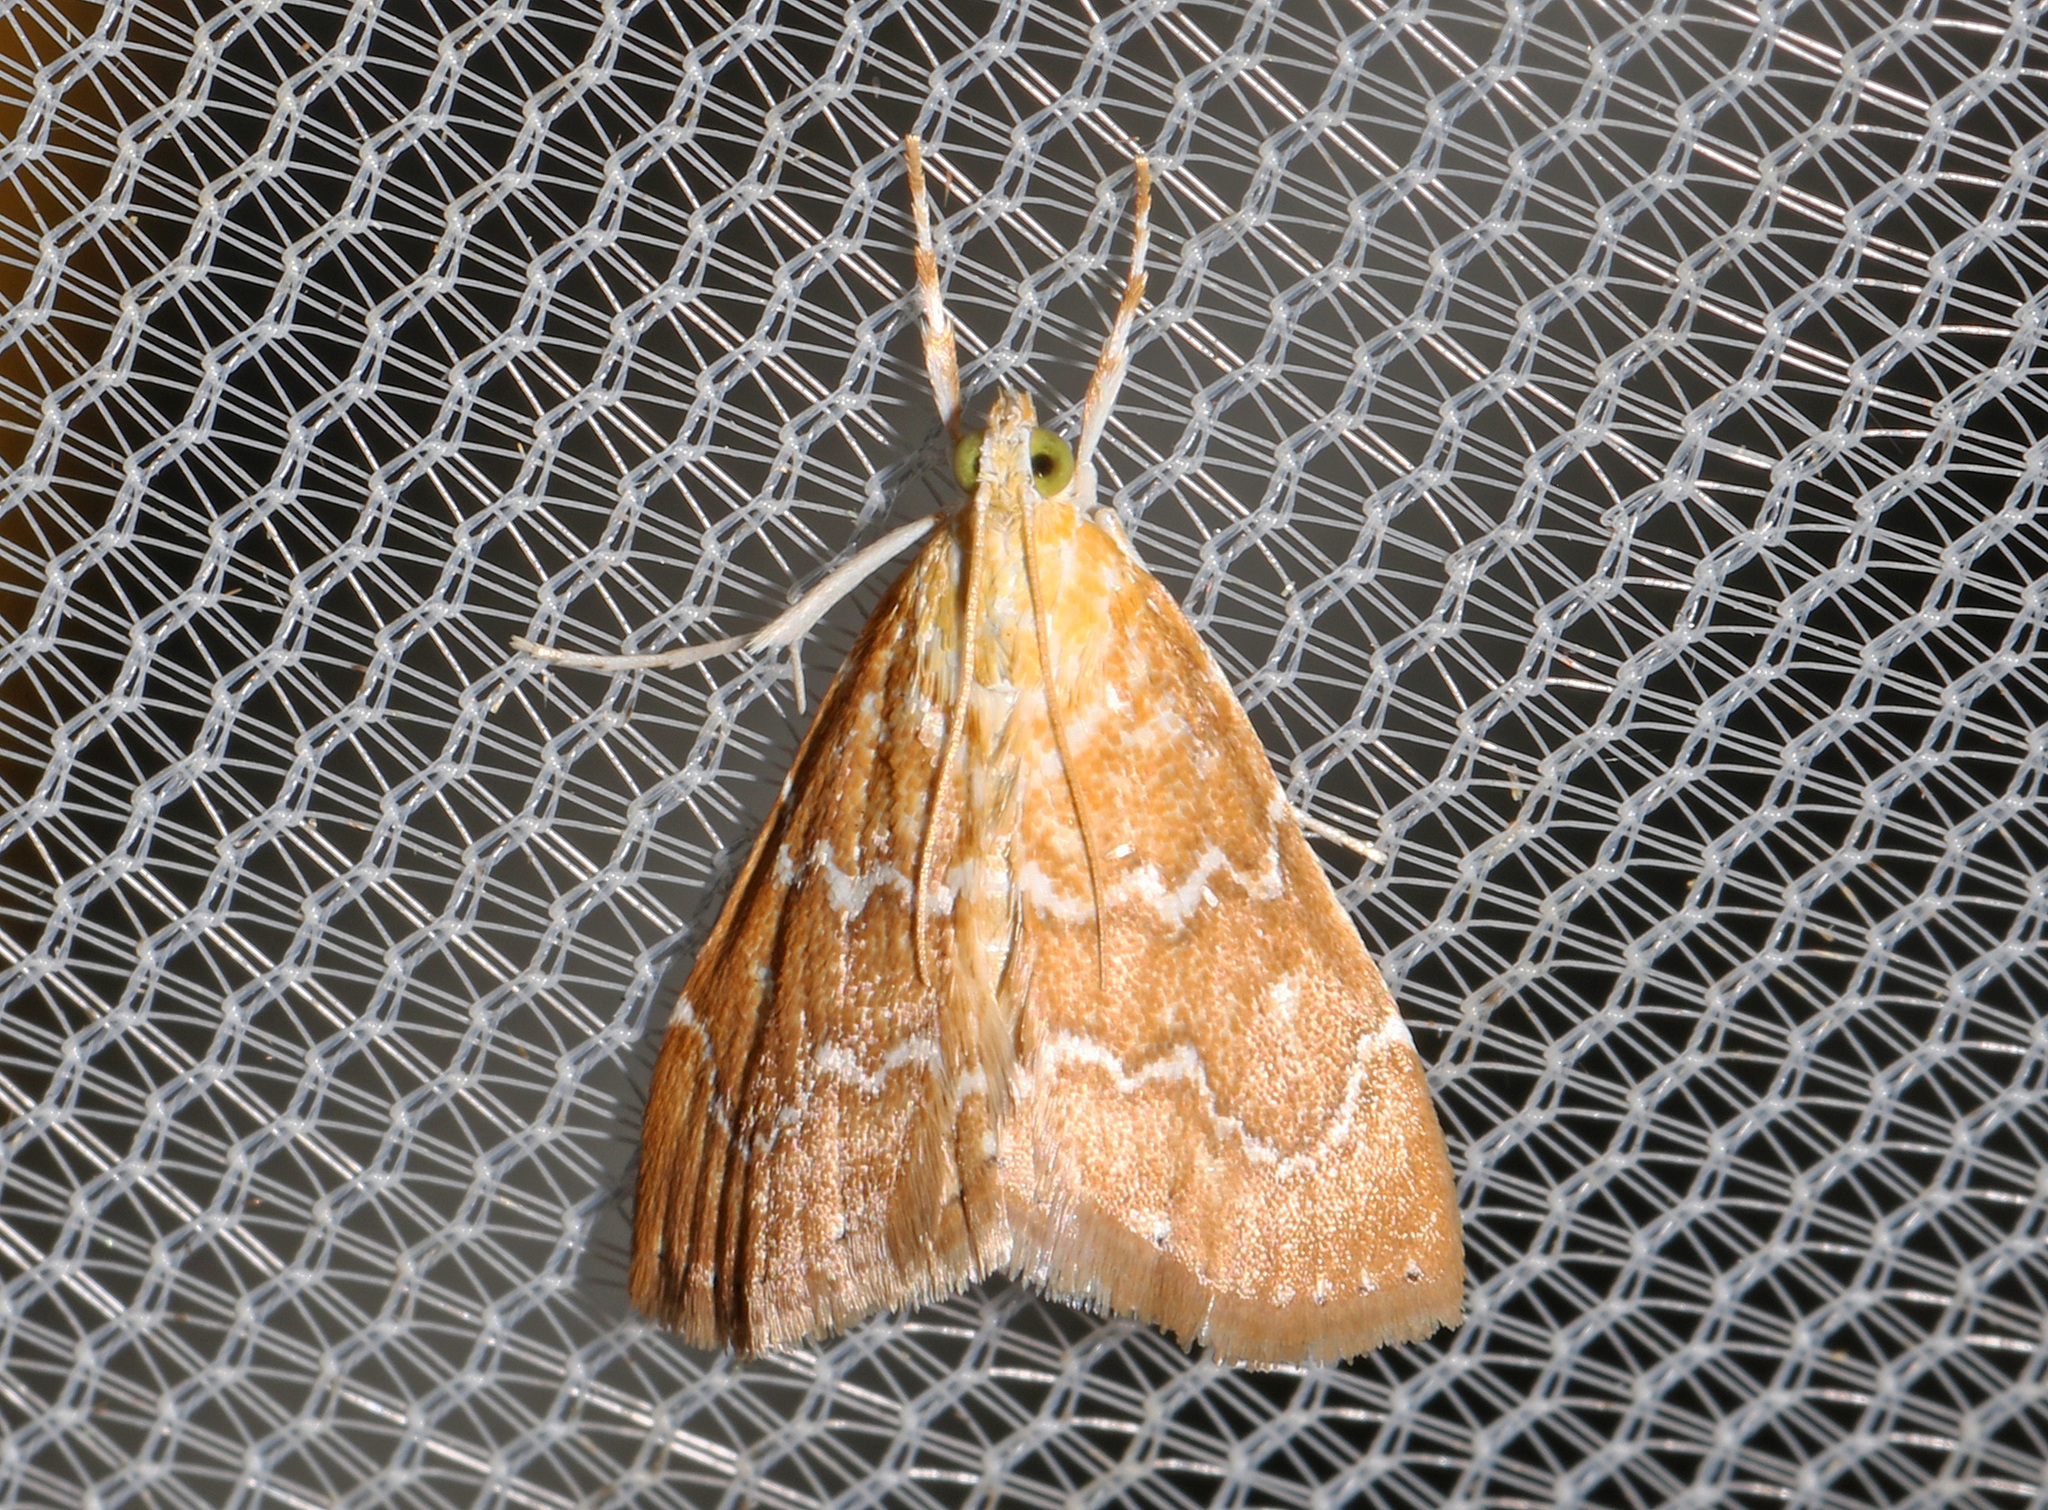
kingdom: Animalia
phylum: Arthropoda
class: Insecta
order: Lepidoptera
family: Crambidae
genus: Glaphyria
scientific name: Glaphyria sesquistrialis
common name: White-roped glaphyria
